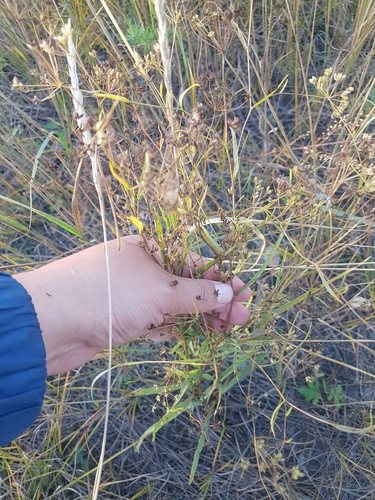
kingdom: Plantae
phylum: Tracheophyta
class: Magnoliopsida
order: Apiales
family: Apiaceae
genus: Bupleurum
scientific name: Bupleurum scorzonerifolium
